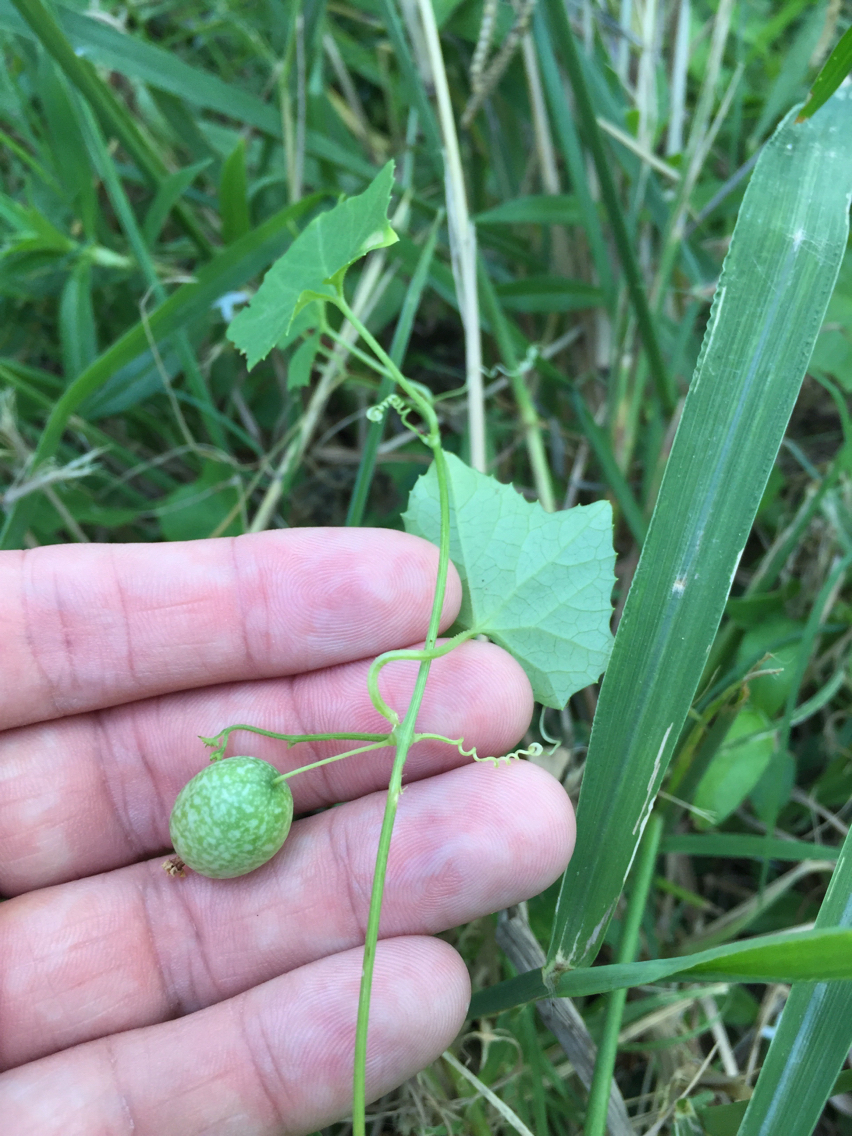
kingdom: Plantae
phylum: Tracheophyta
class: Magnoliopsida
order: Cucurbitales
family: Cucurbitaceae
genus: Melothria
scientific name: Melothria pendula
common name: Creeping-cucumber
